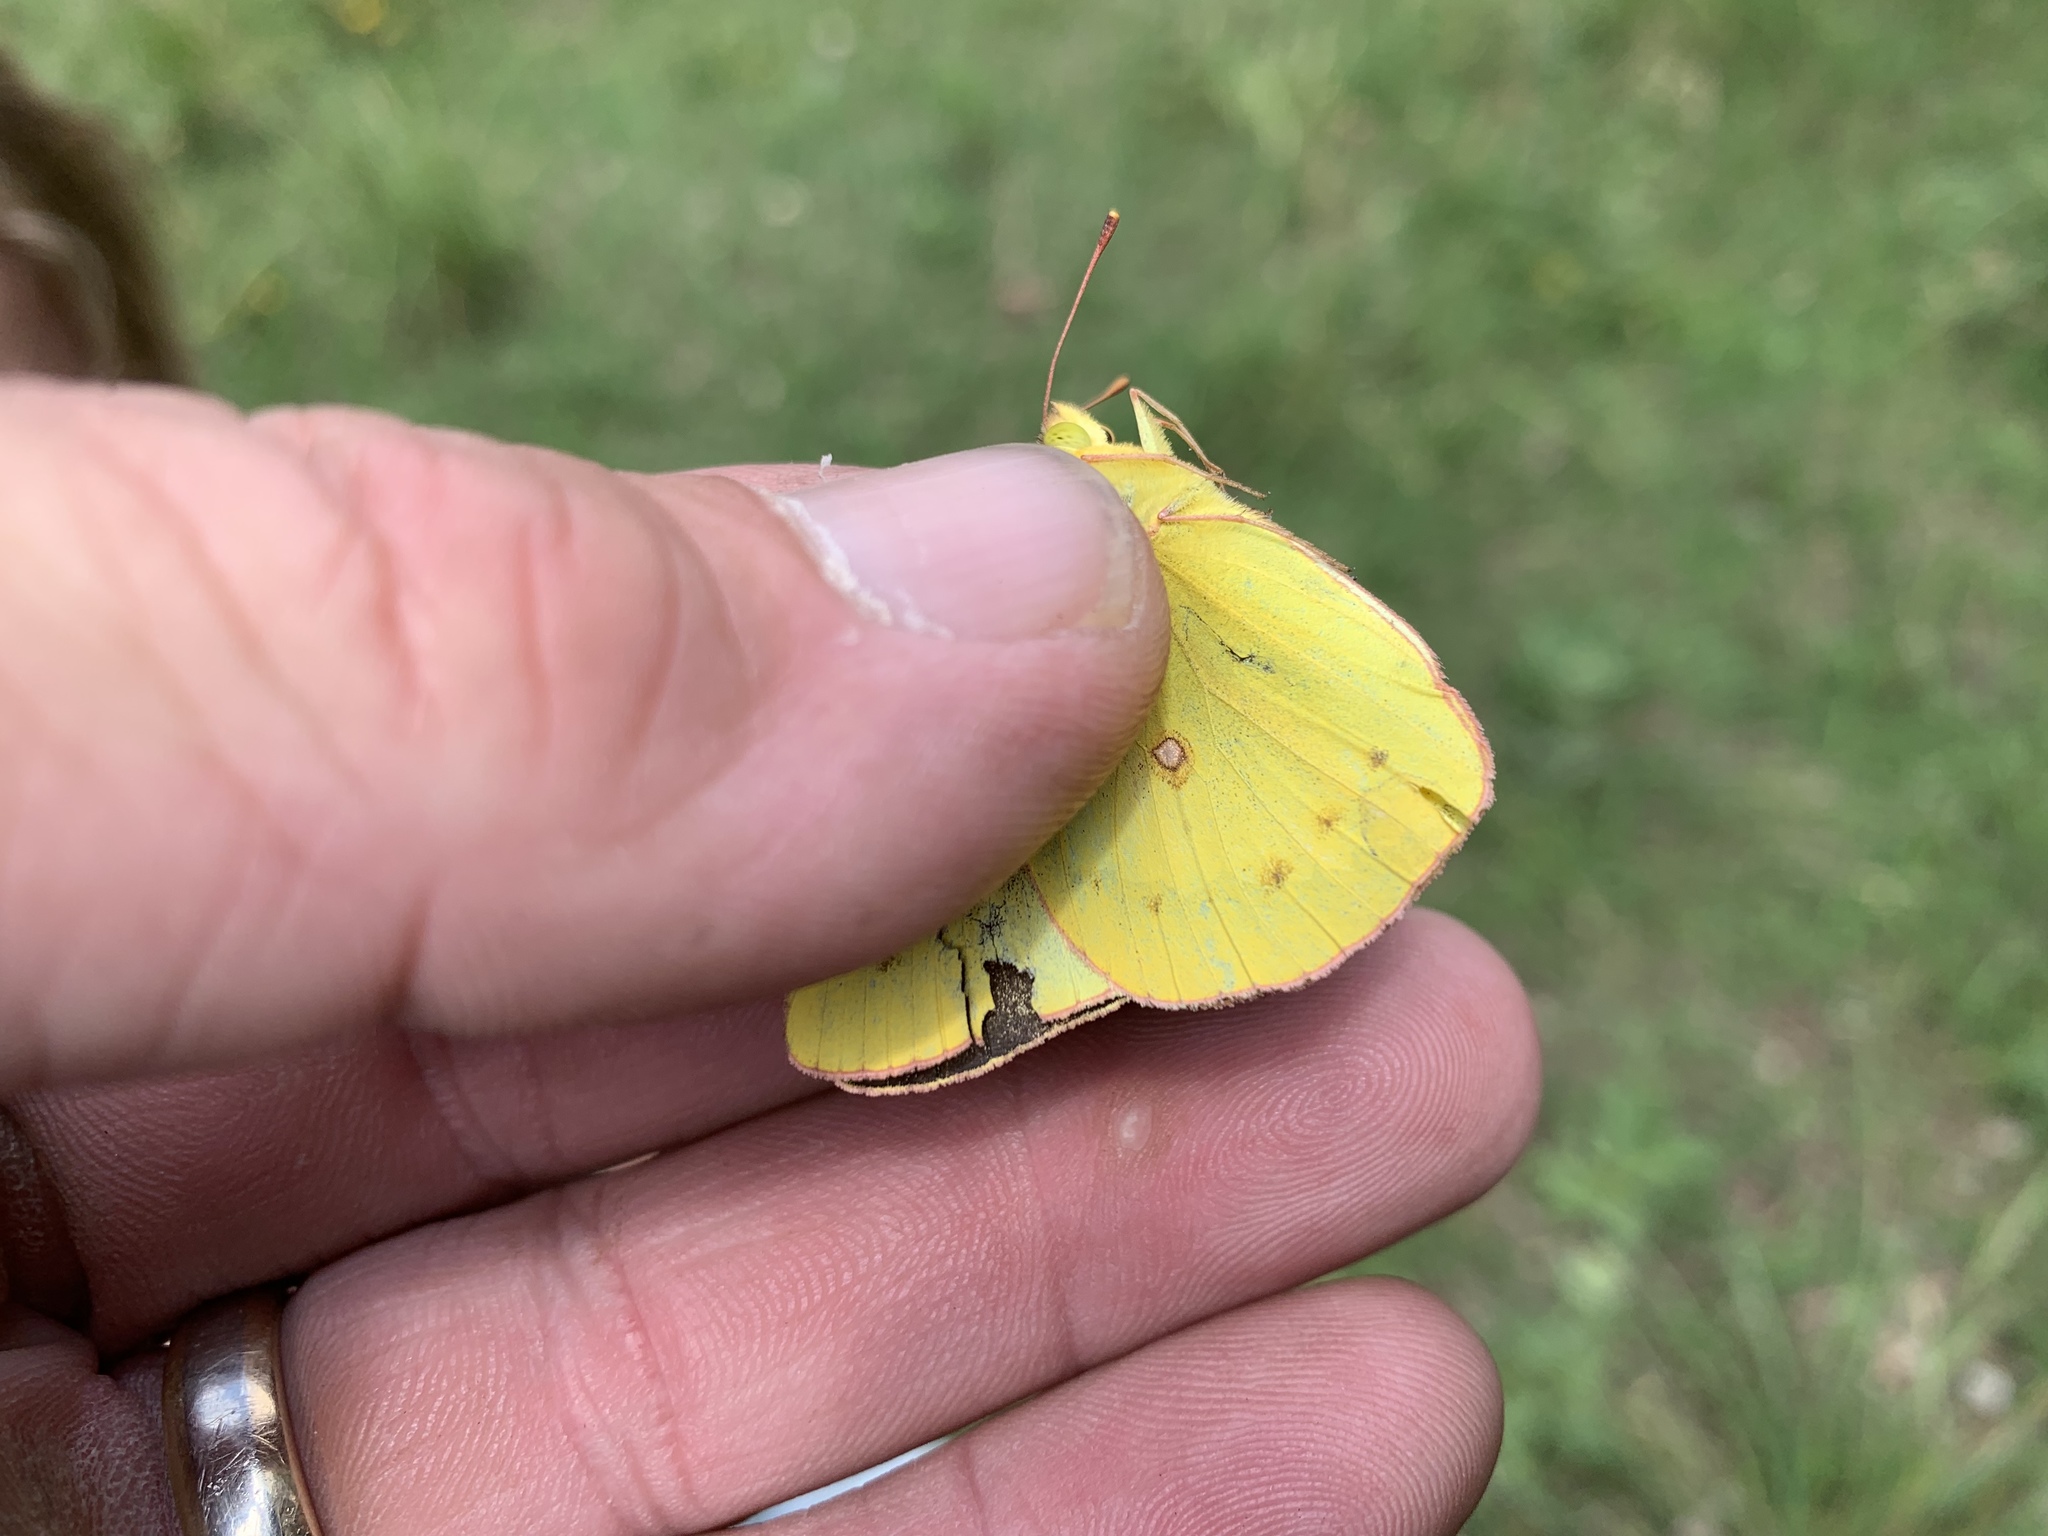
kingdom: Animalia
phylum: Arthropoda
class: Insecta
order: Lepidoptera
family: Pieridae
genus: Colias
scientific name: Colias eurytheme
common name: Alfalfa butterfly
